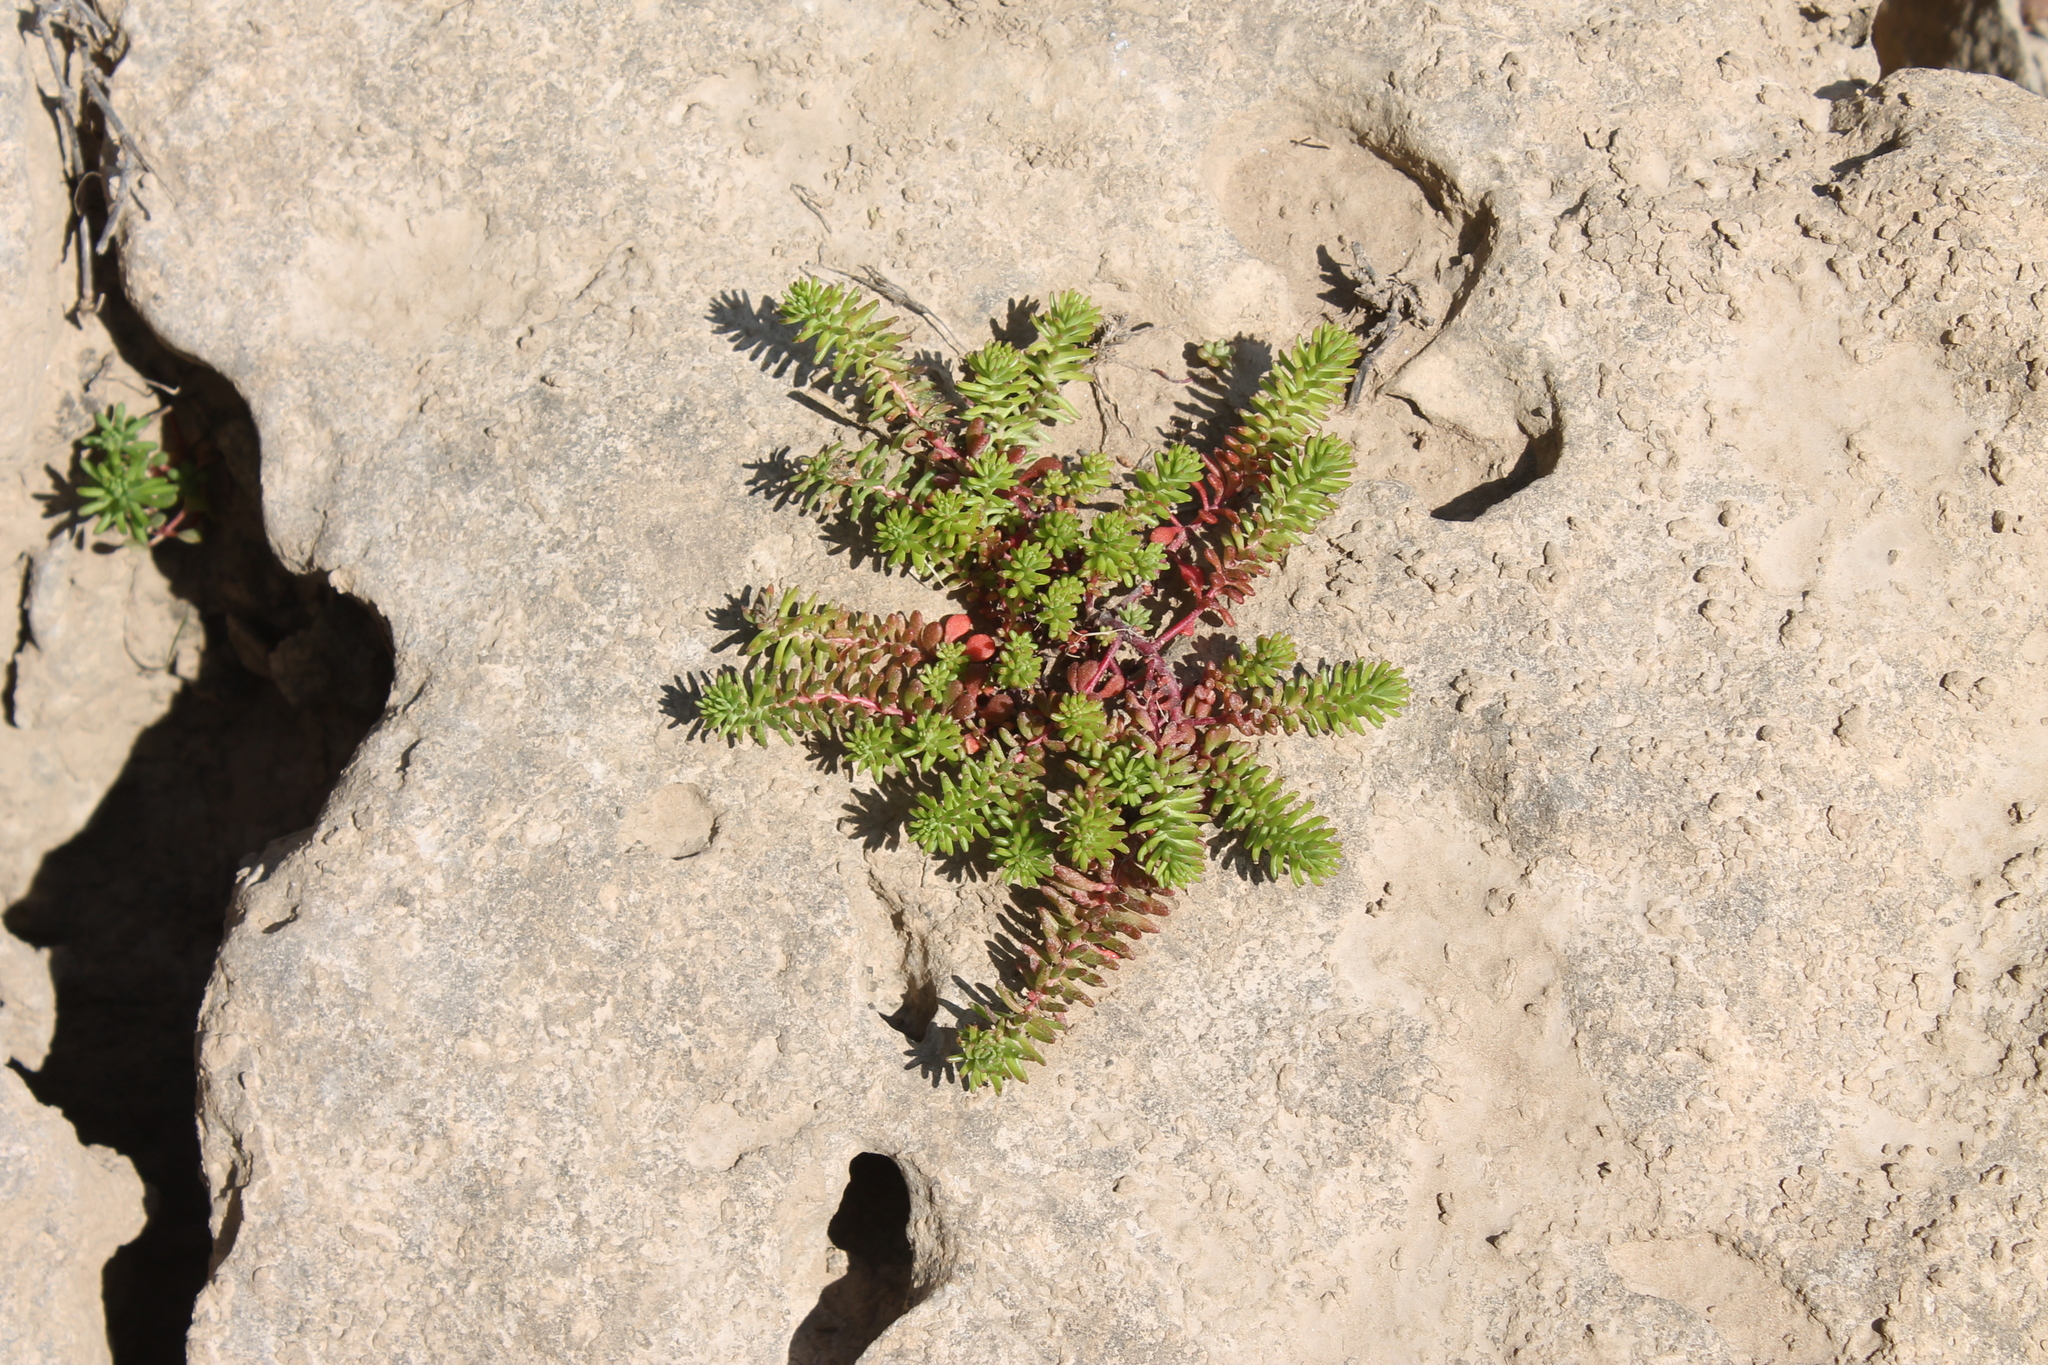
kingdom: Plantae
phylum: Tracheophyta
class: Magnoliopsida
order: Saxifragales
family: Crassulaceae
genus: Sedum
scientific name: Sedum pulchellum
